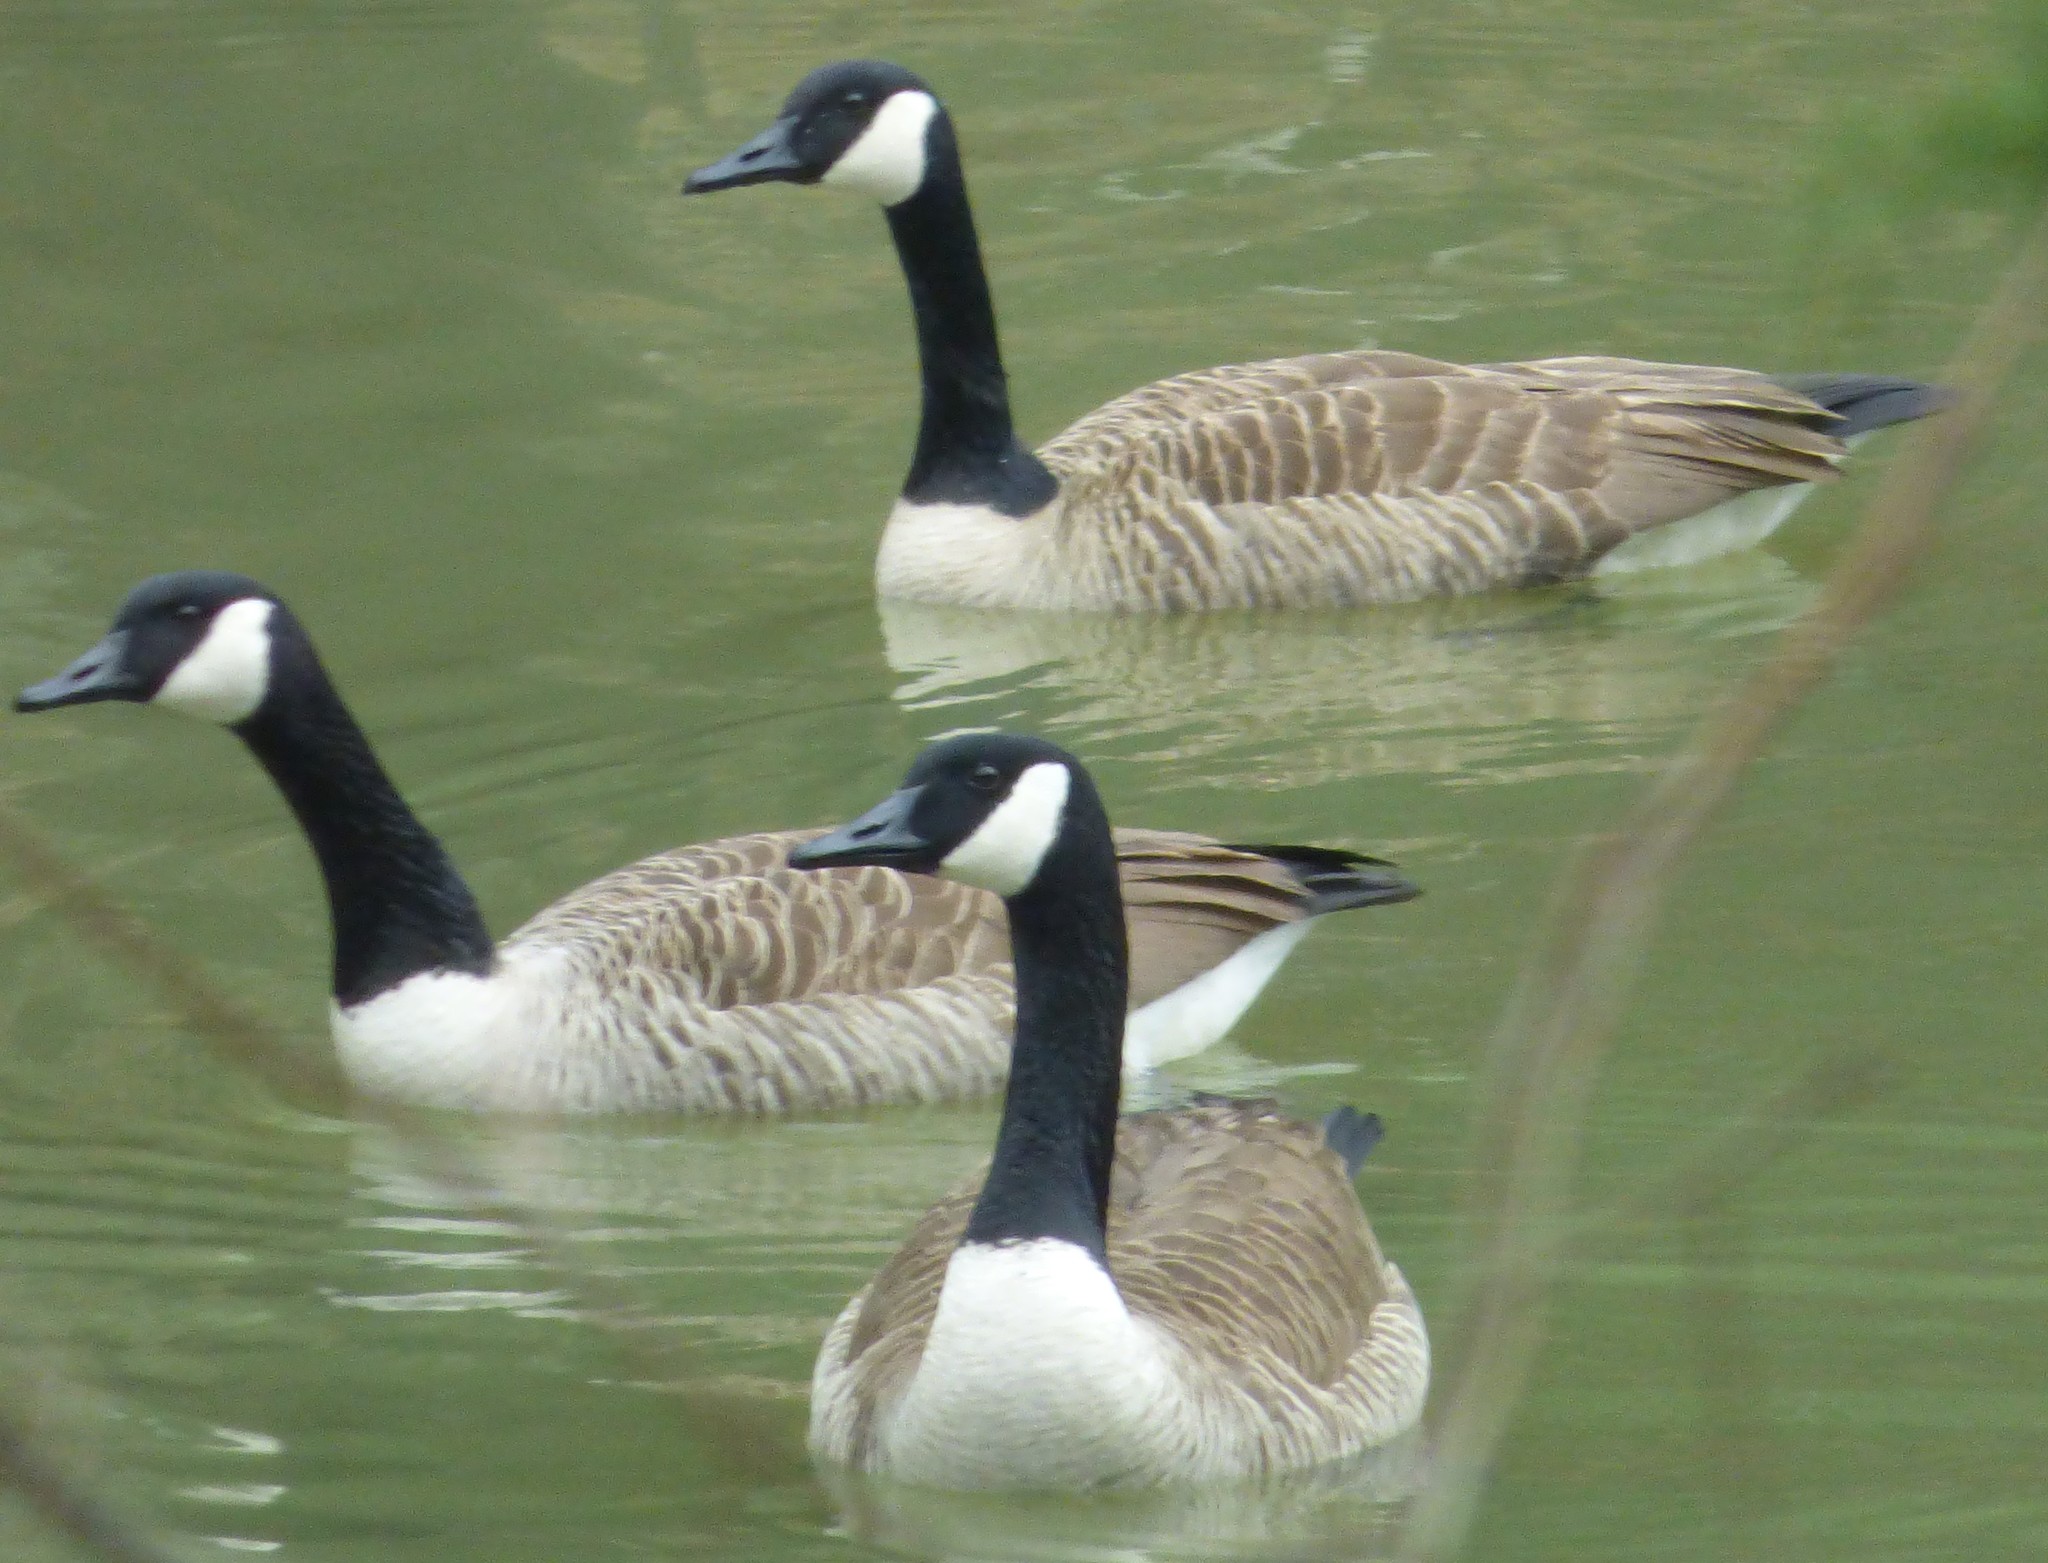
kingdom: Animalia
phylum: Chordata
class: Aves
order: Anseriformes
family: Anatidae
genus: Branta
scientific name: Branta canadensis
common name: Canada goose
